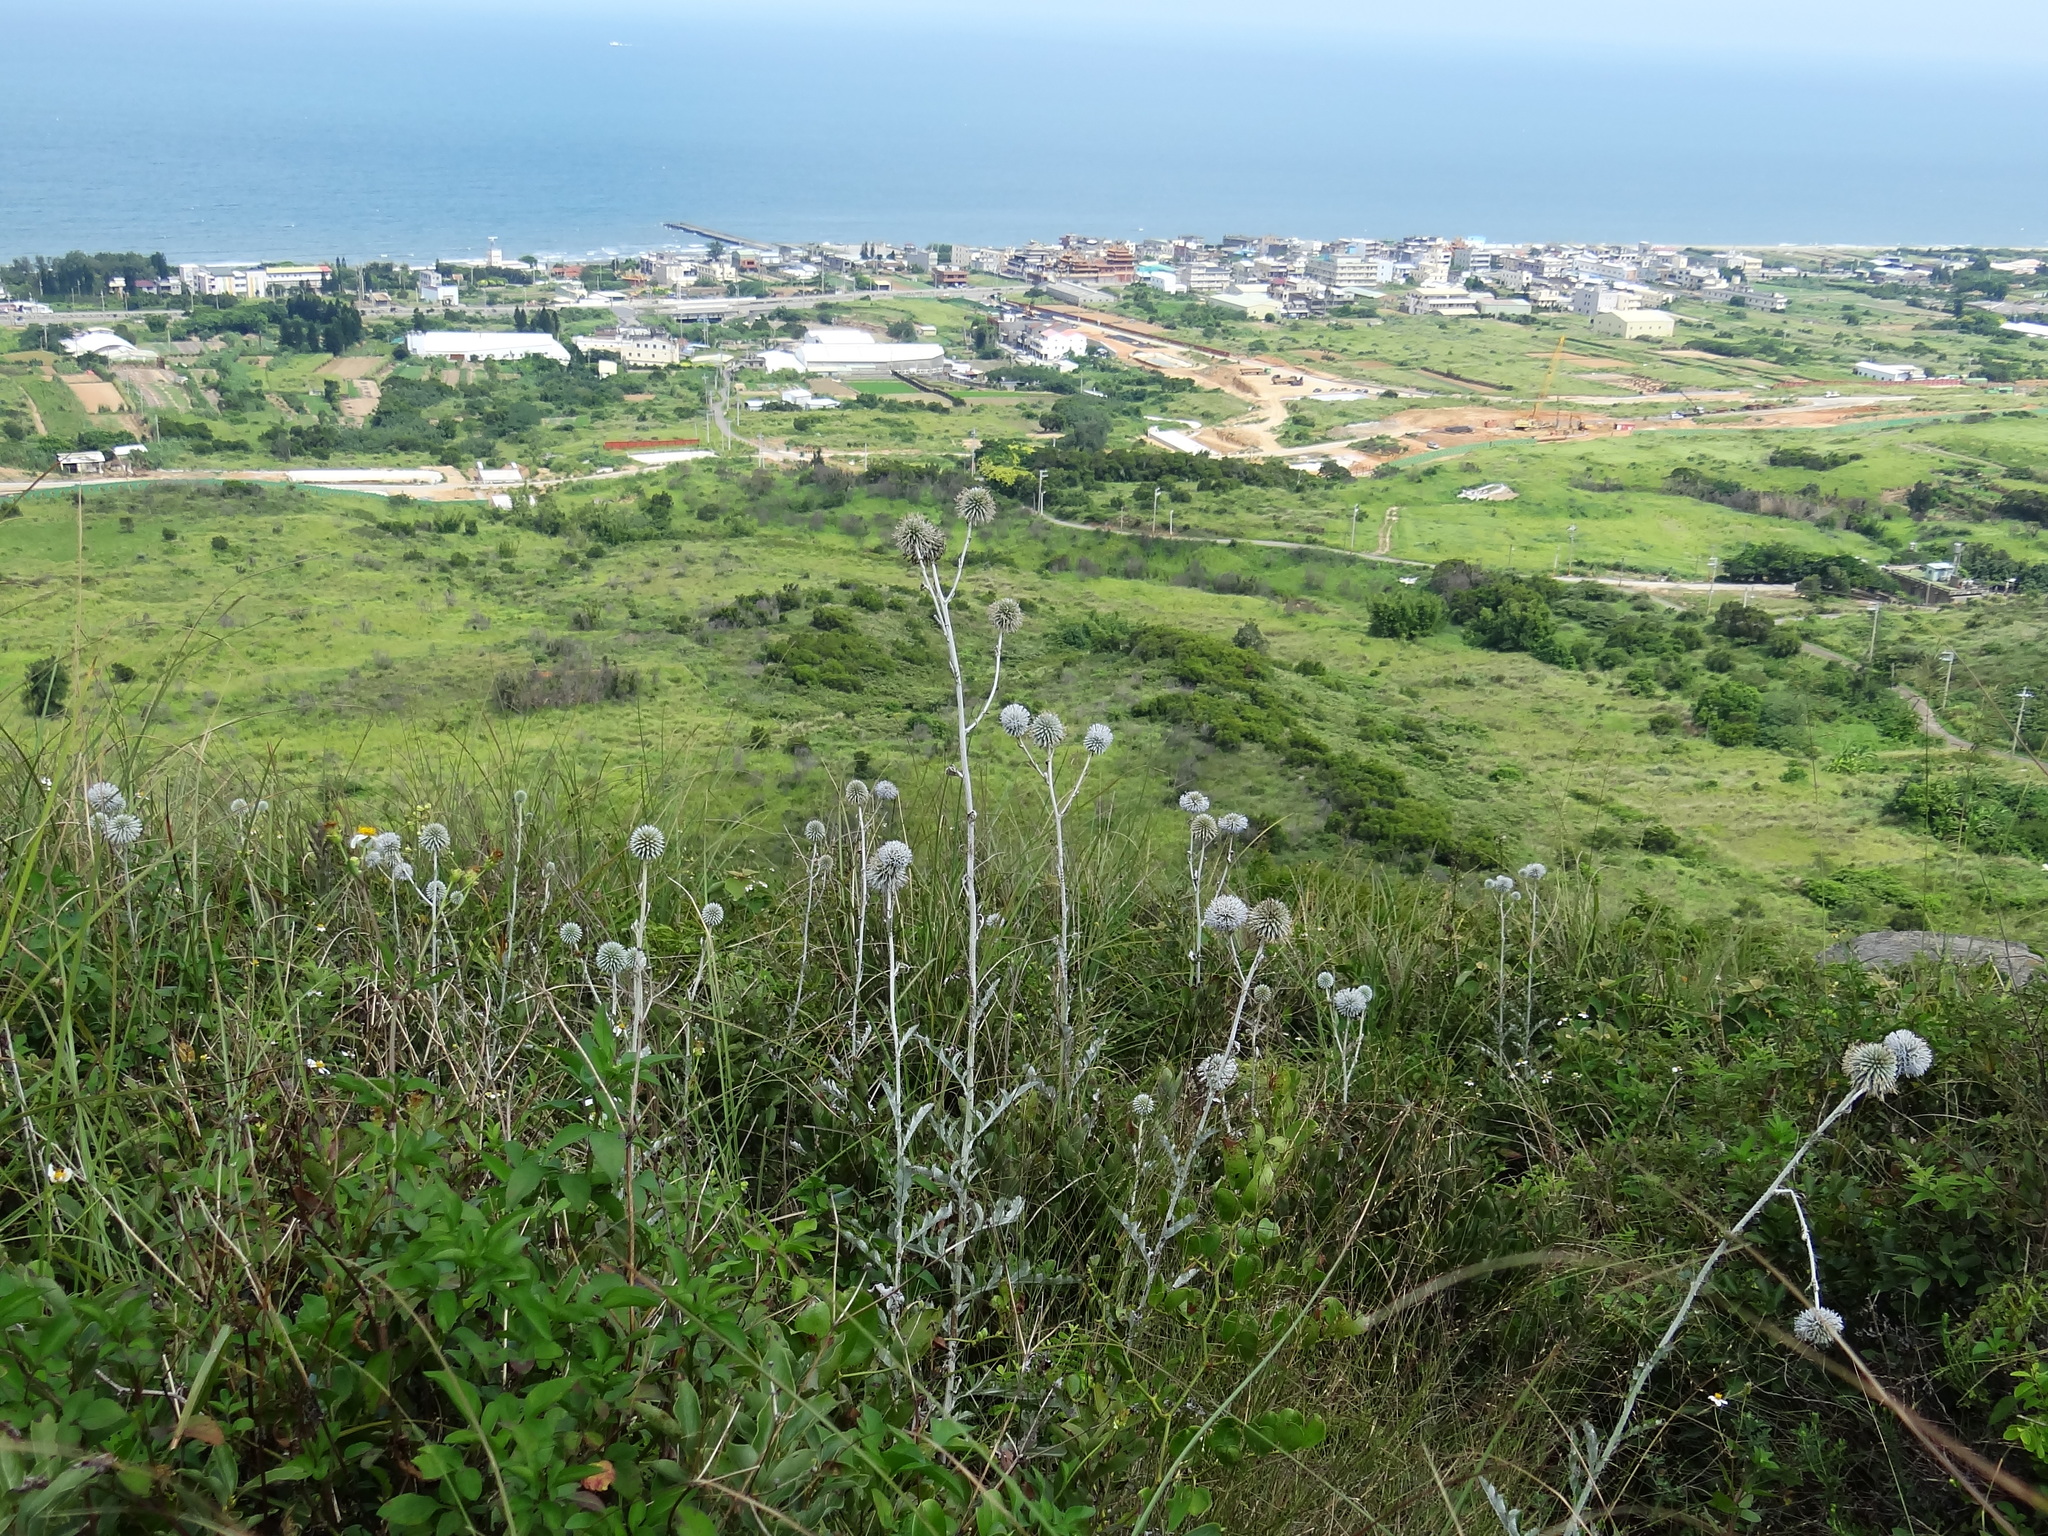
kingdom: Plantae
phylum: Tracheophyta
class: Magnoliopsida
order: Asterales
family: Asteraceae
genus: Echinops
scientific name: Echinops grijsii
